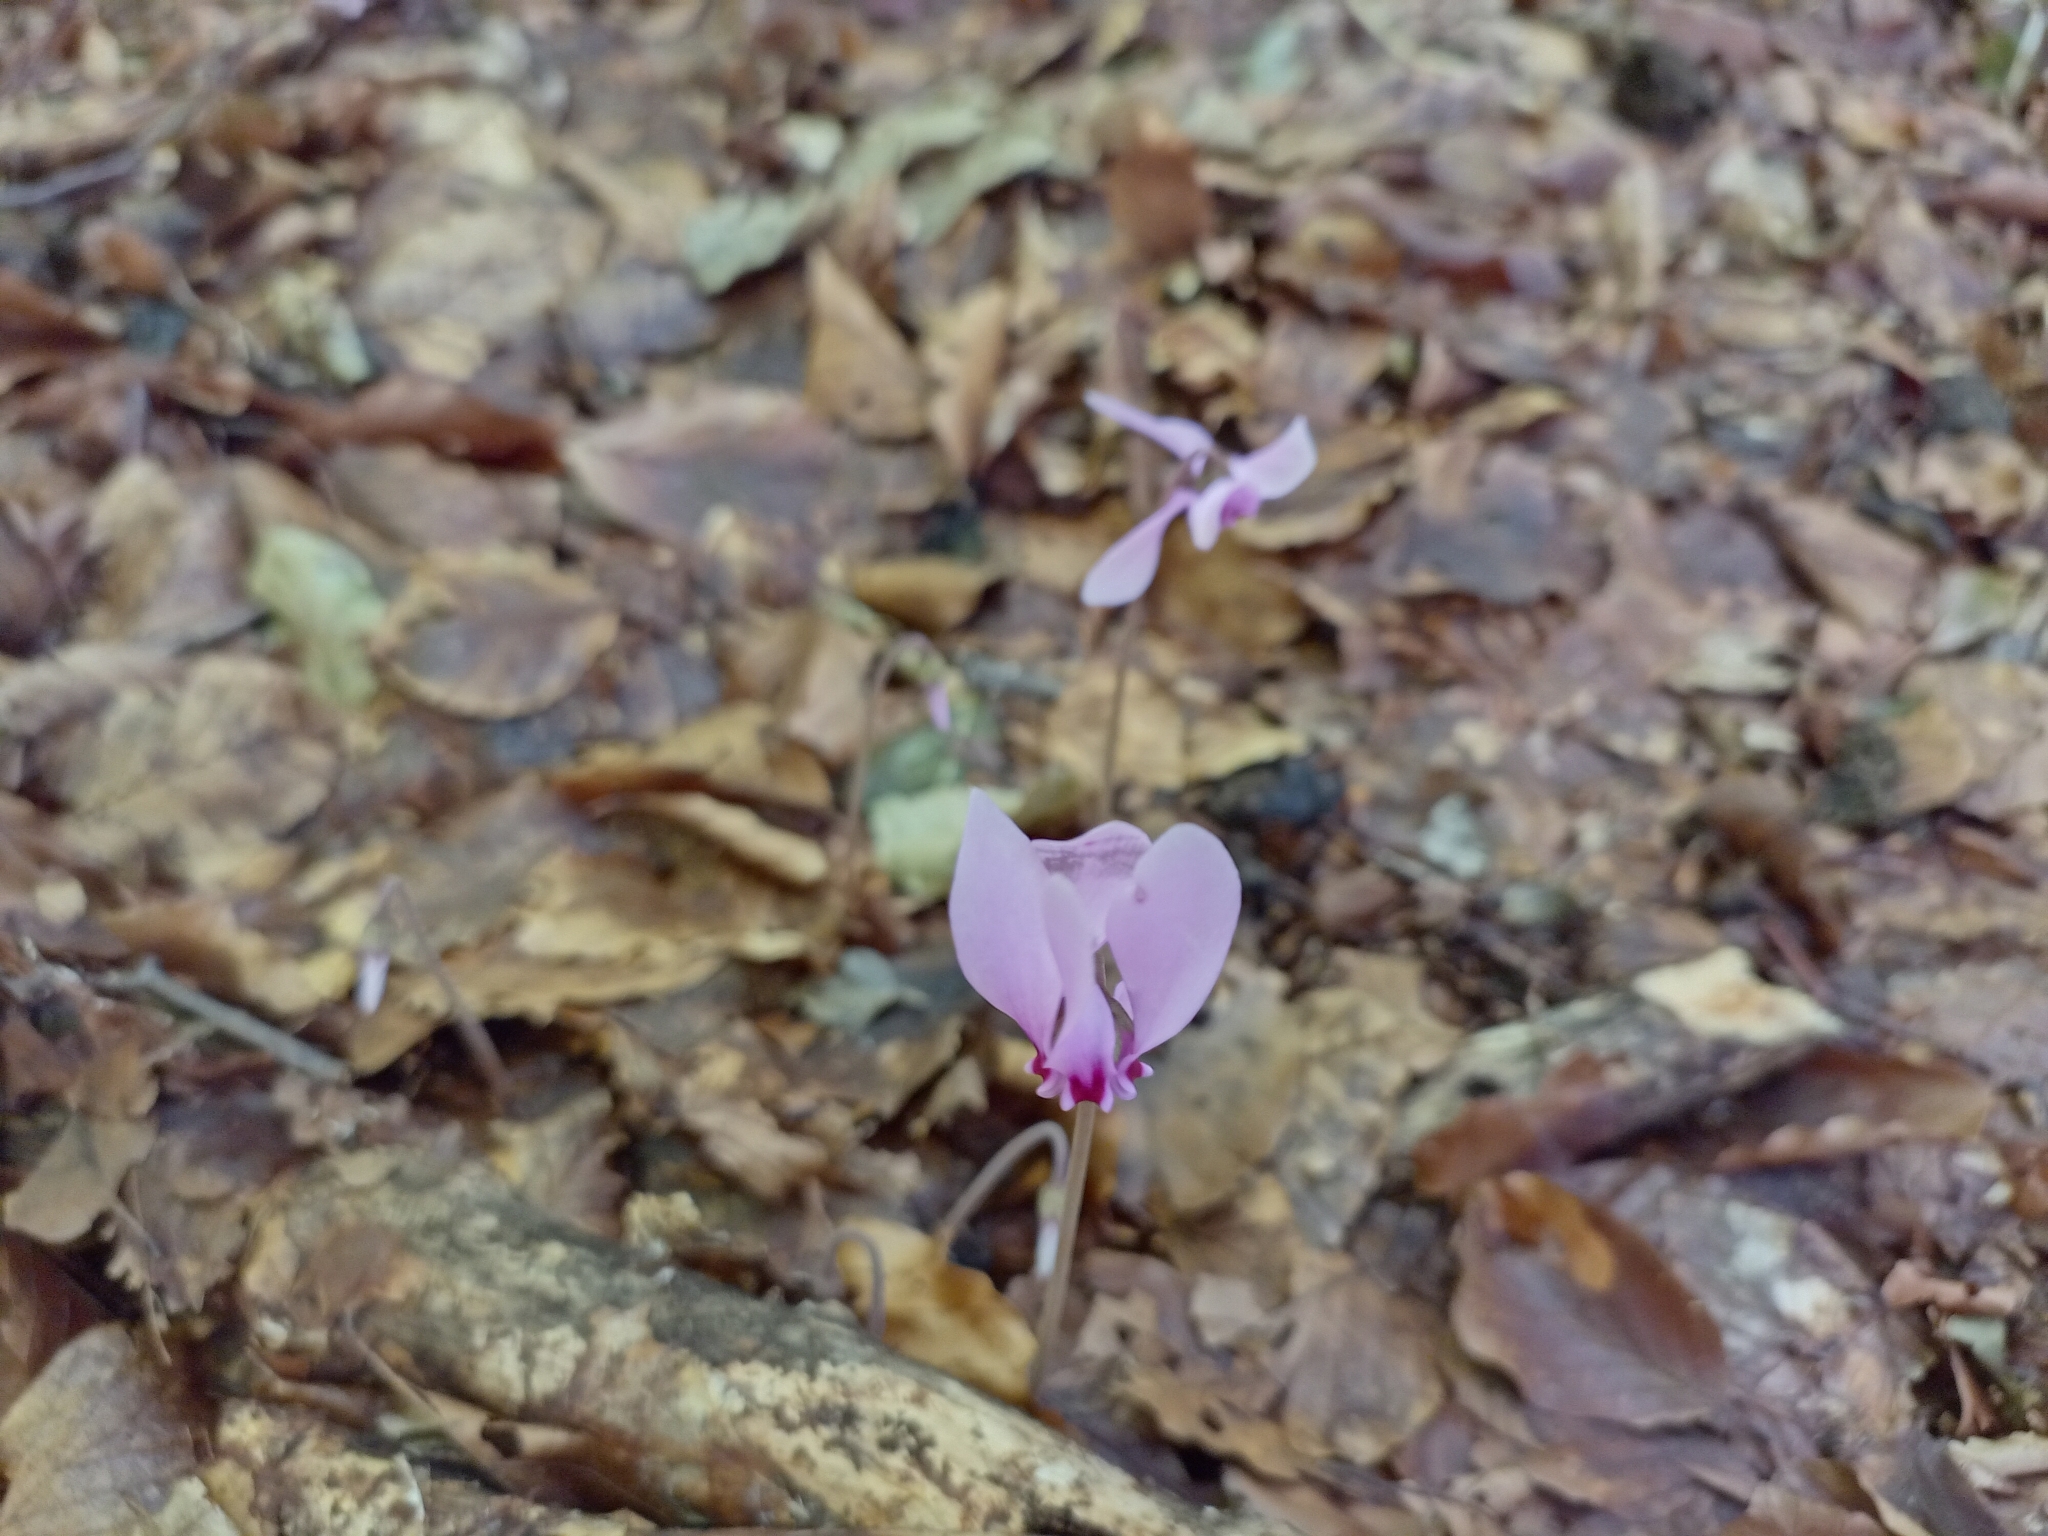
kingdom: Plantae
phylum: Tracheophyta
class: Magnoliopsida
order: Ericales
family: Primulaceae
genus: Cyclamen
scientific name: Cyclamen hederifolium
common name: Sowbread
